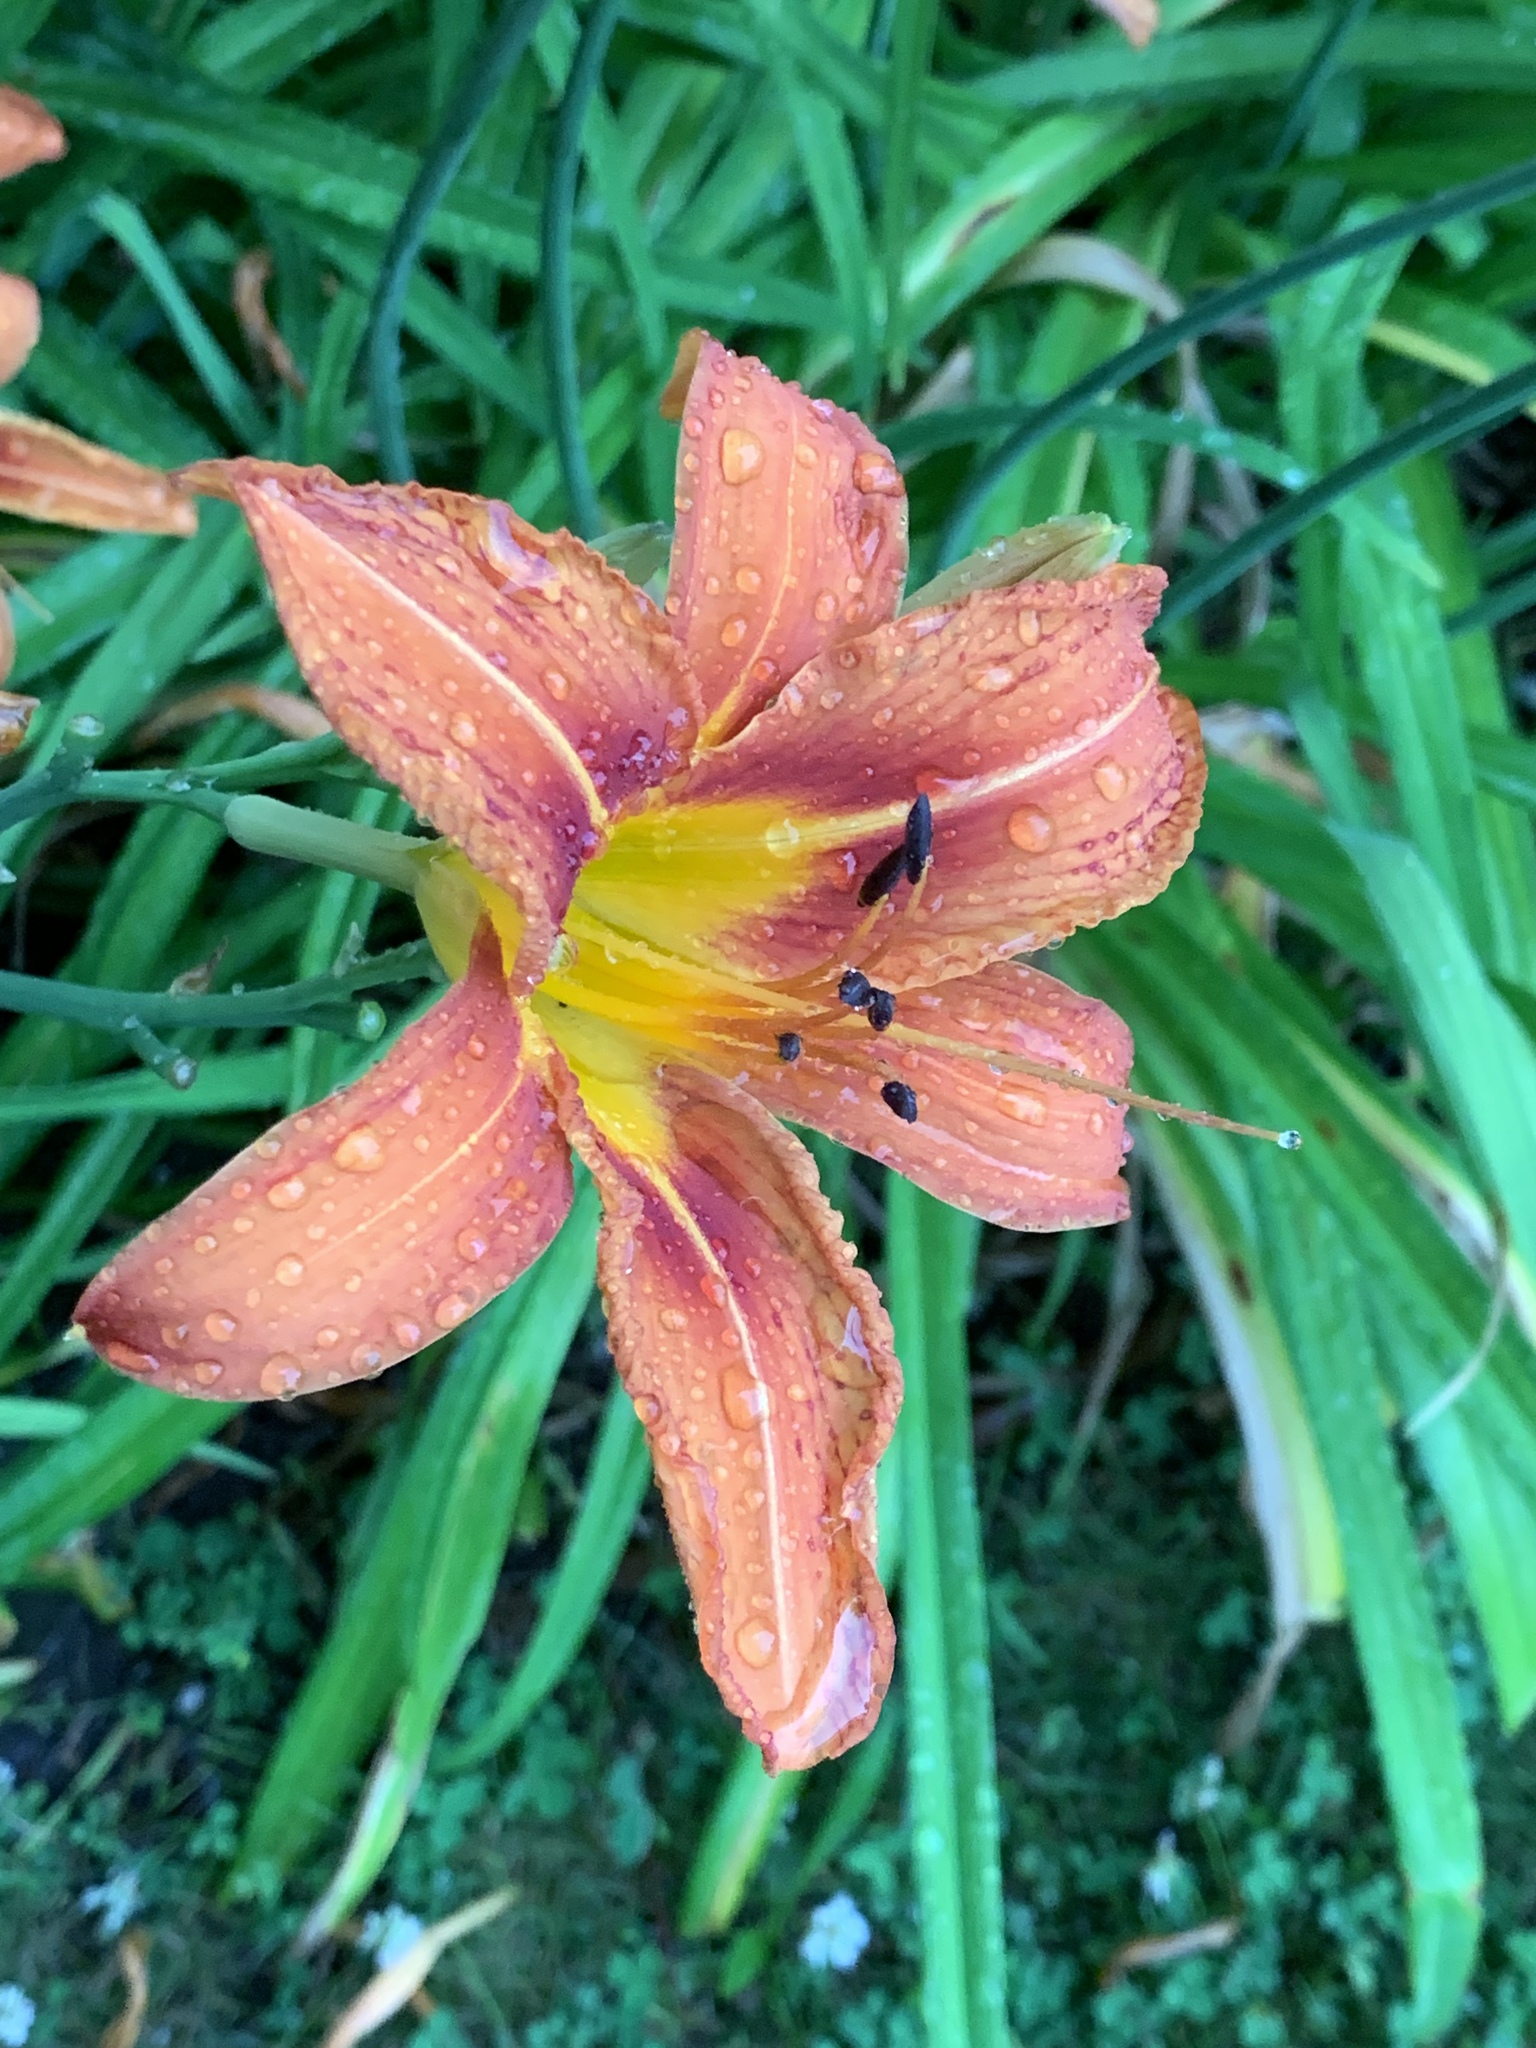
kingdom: Plantae
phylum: Tracheophyta
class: Liliopsida
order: Asparagales
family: Asphodelaceae
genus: Hemerocallis
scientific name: Hemerocallis fulva
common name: Orange day-lily
